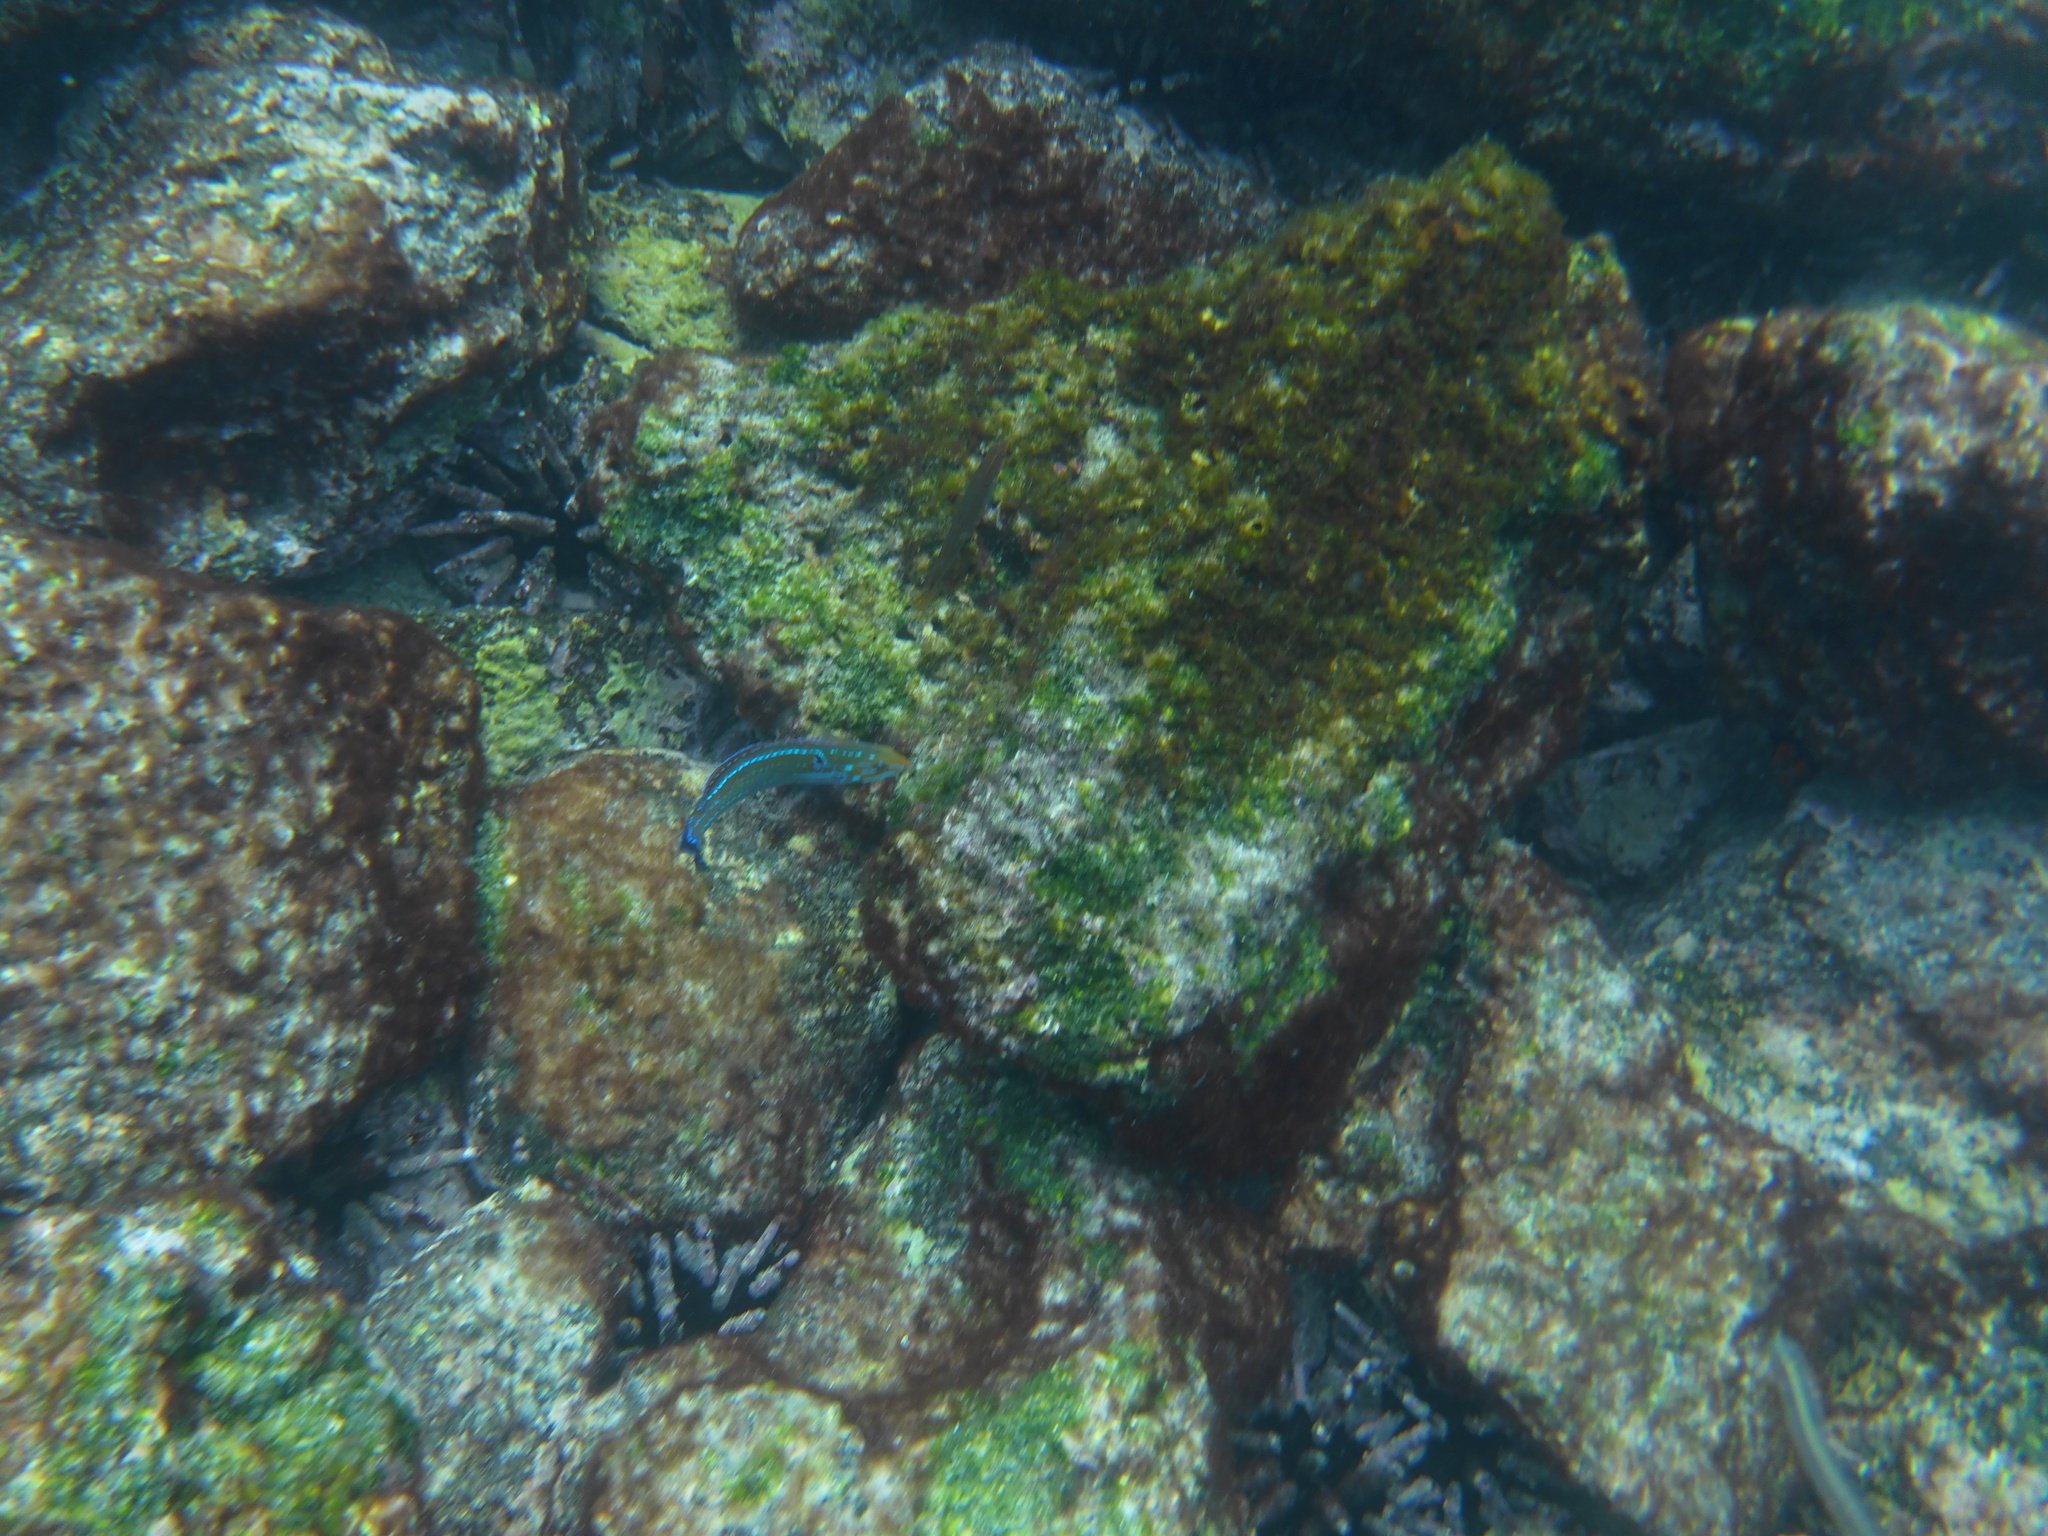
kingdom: Animalia
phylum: Chordata
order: Perciformes
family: Labridae
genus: Halichoeres
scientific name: Halichoeres dispilus
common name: Chameleon wrasse
